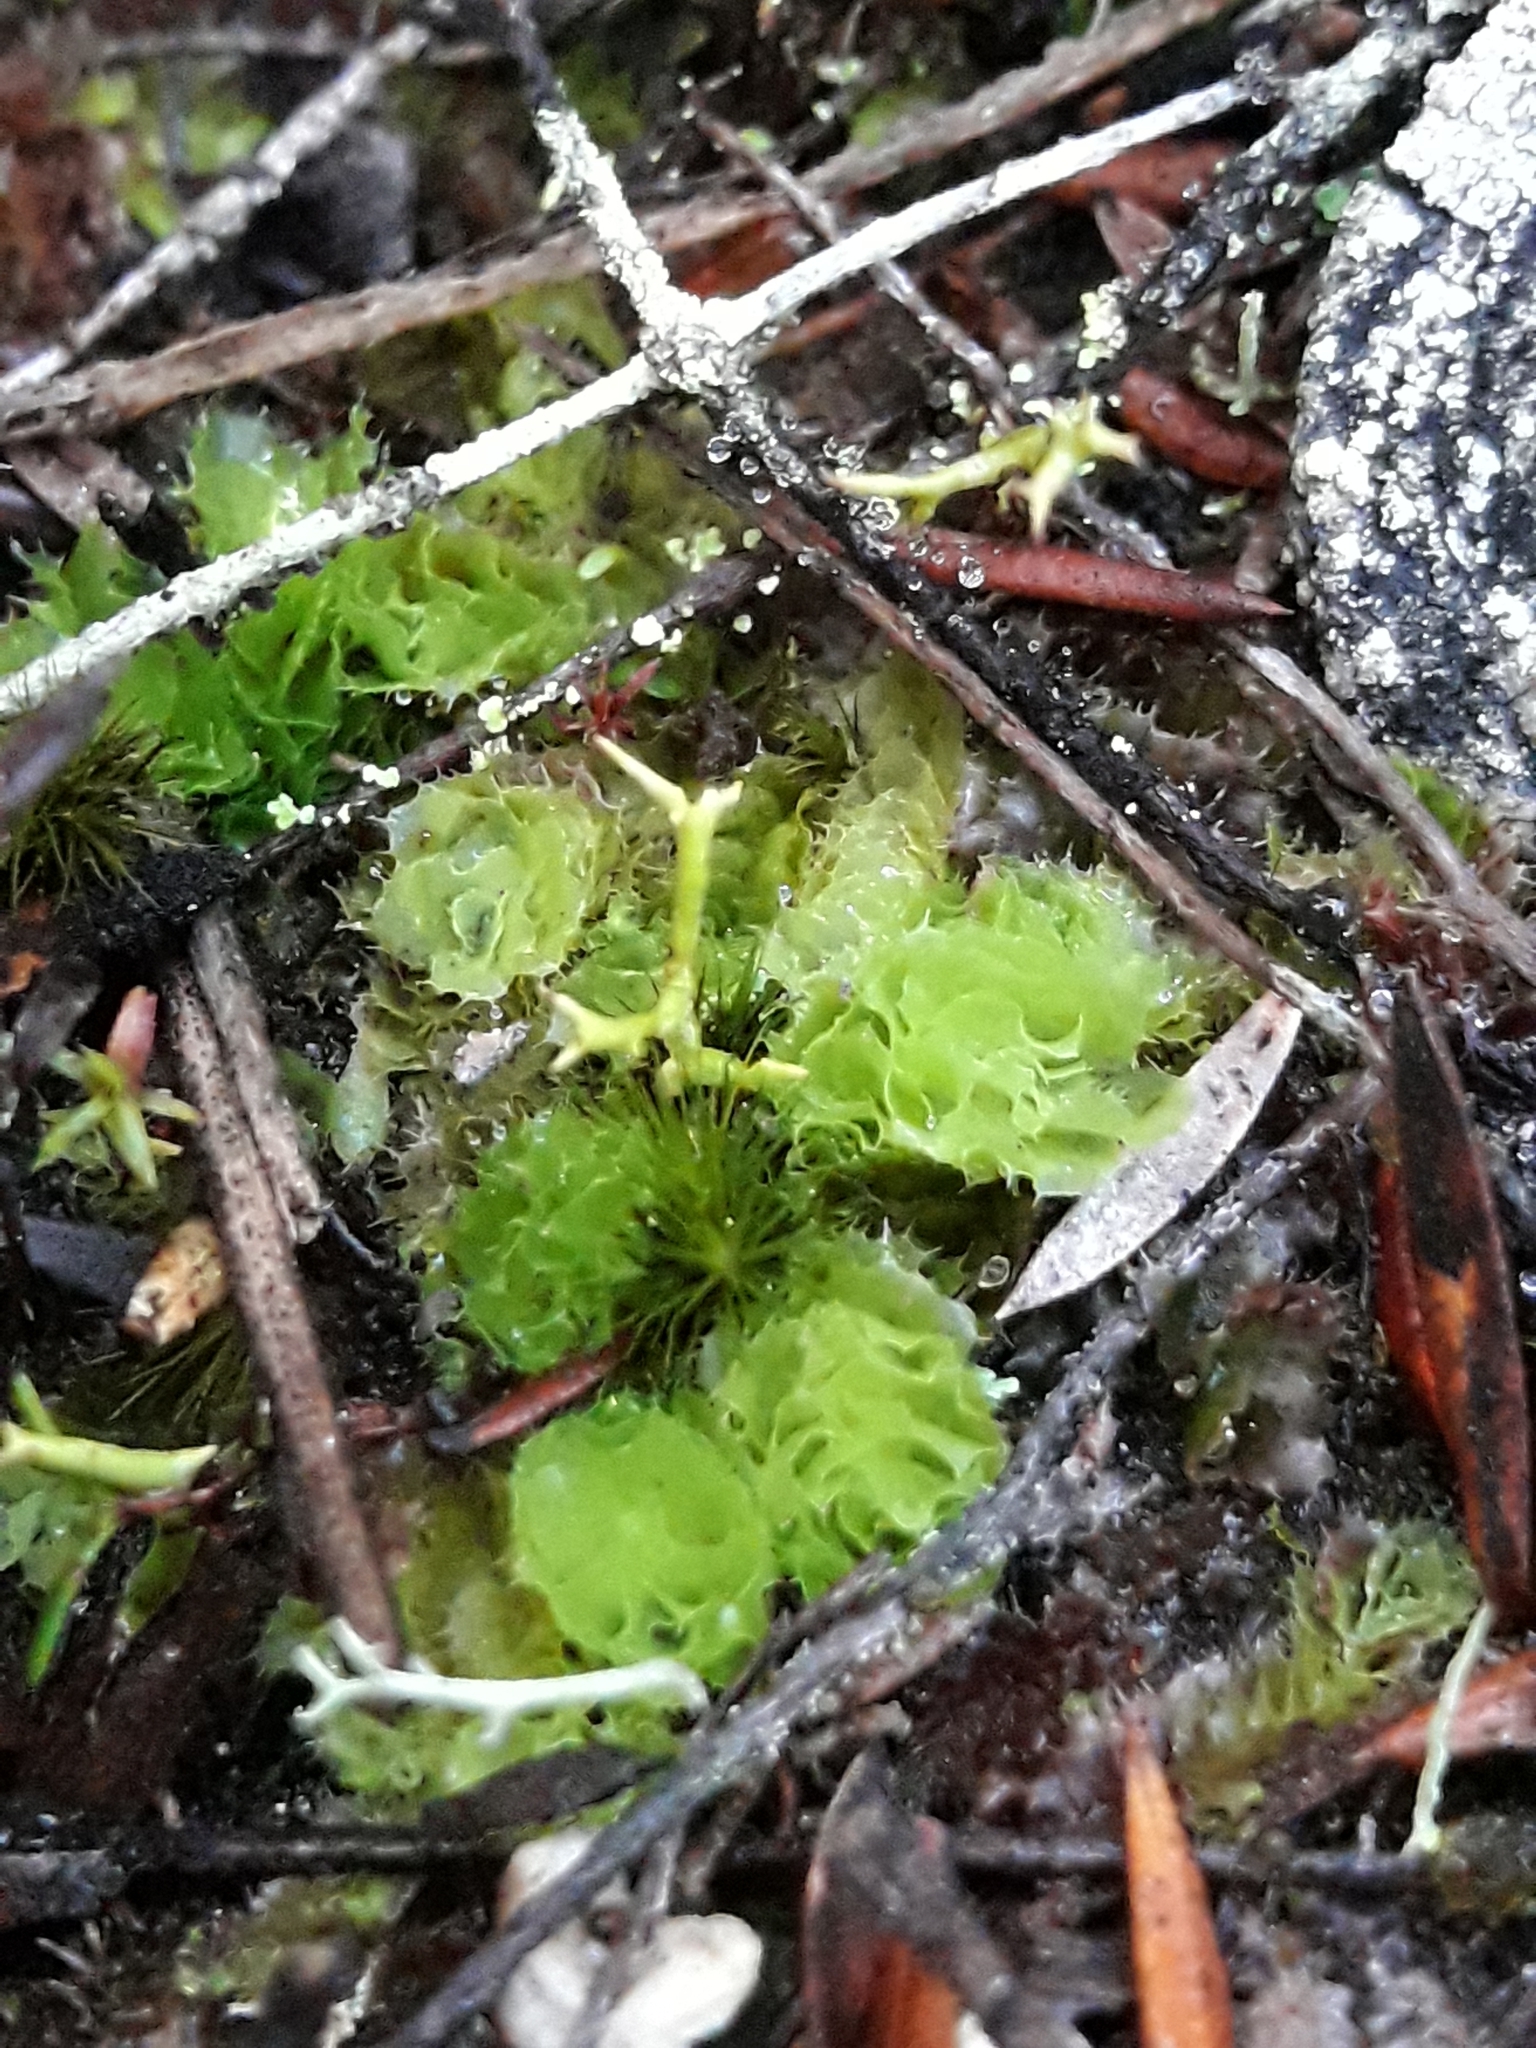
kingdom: Plantae
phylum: Marchantiophyta
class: Jungermanniopsida
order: Jungermanniales
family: Acrobolbaceae
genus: Goebelobryum
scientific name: Goebelobryum unguiculatum
